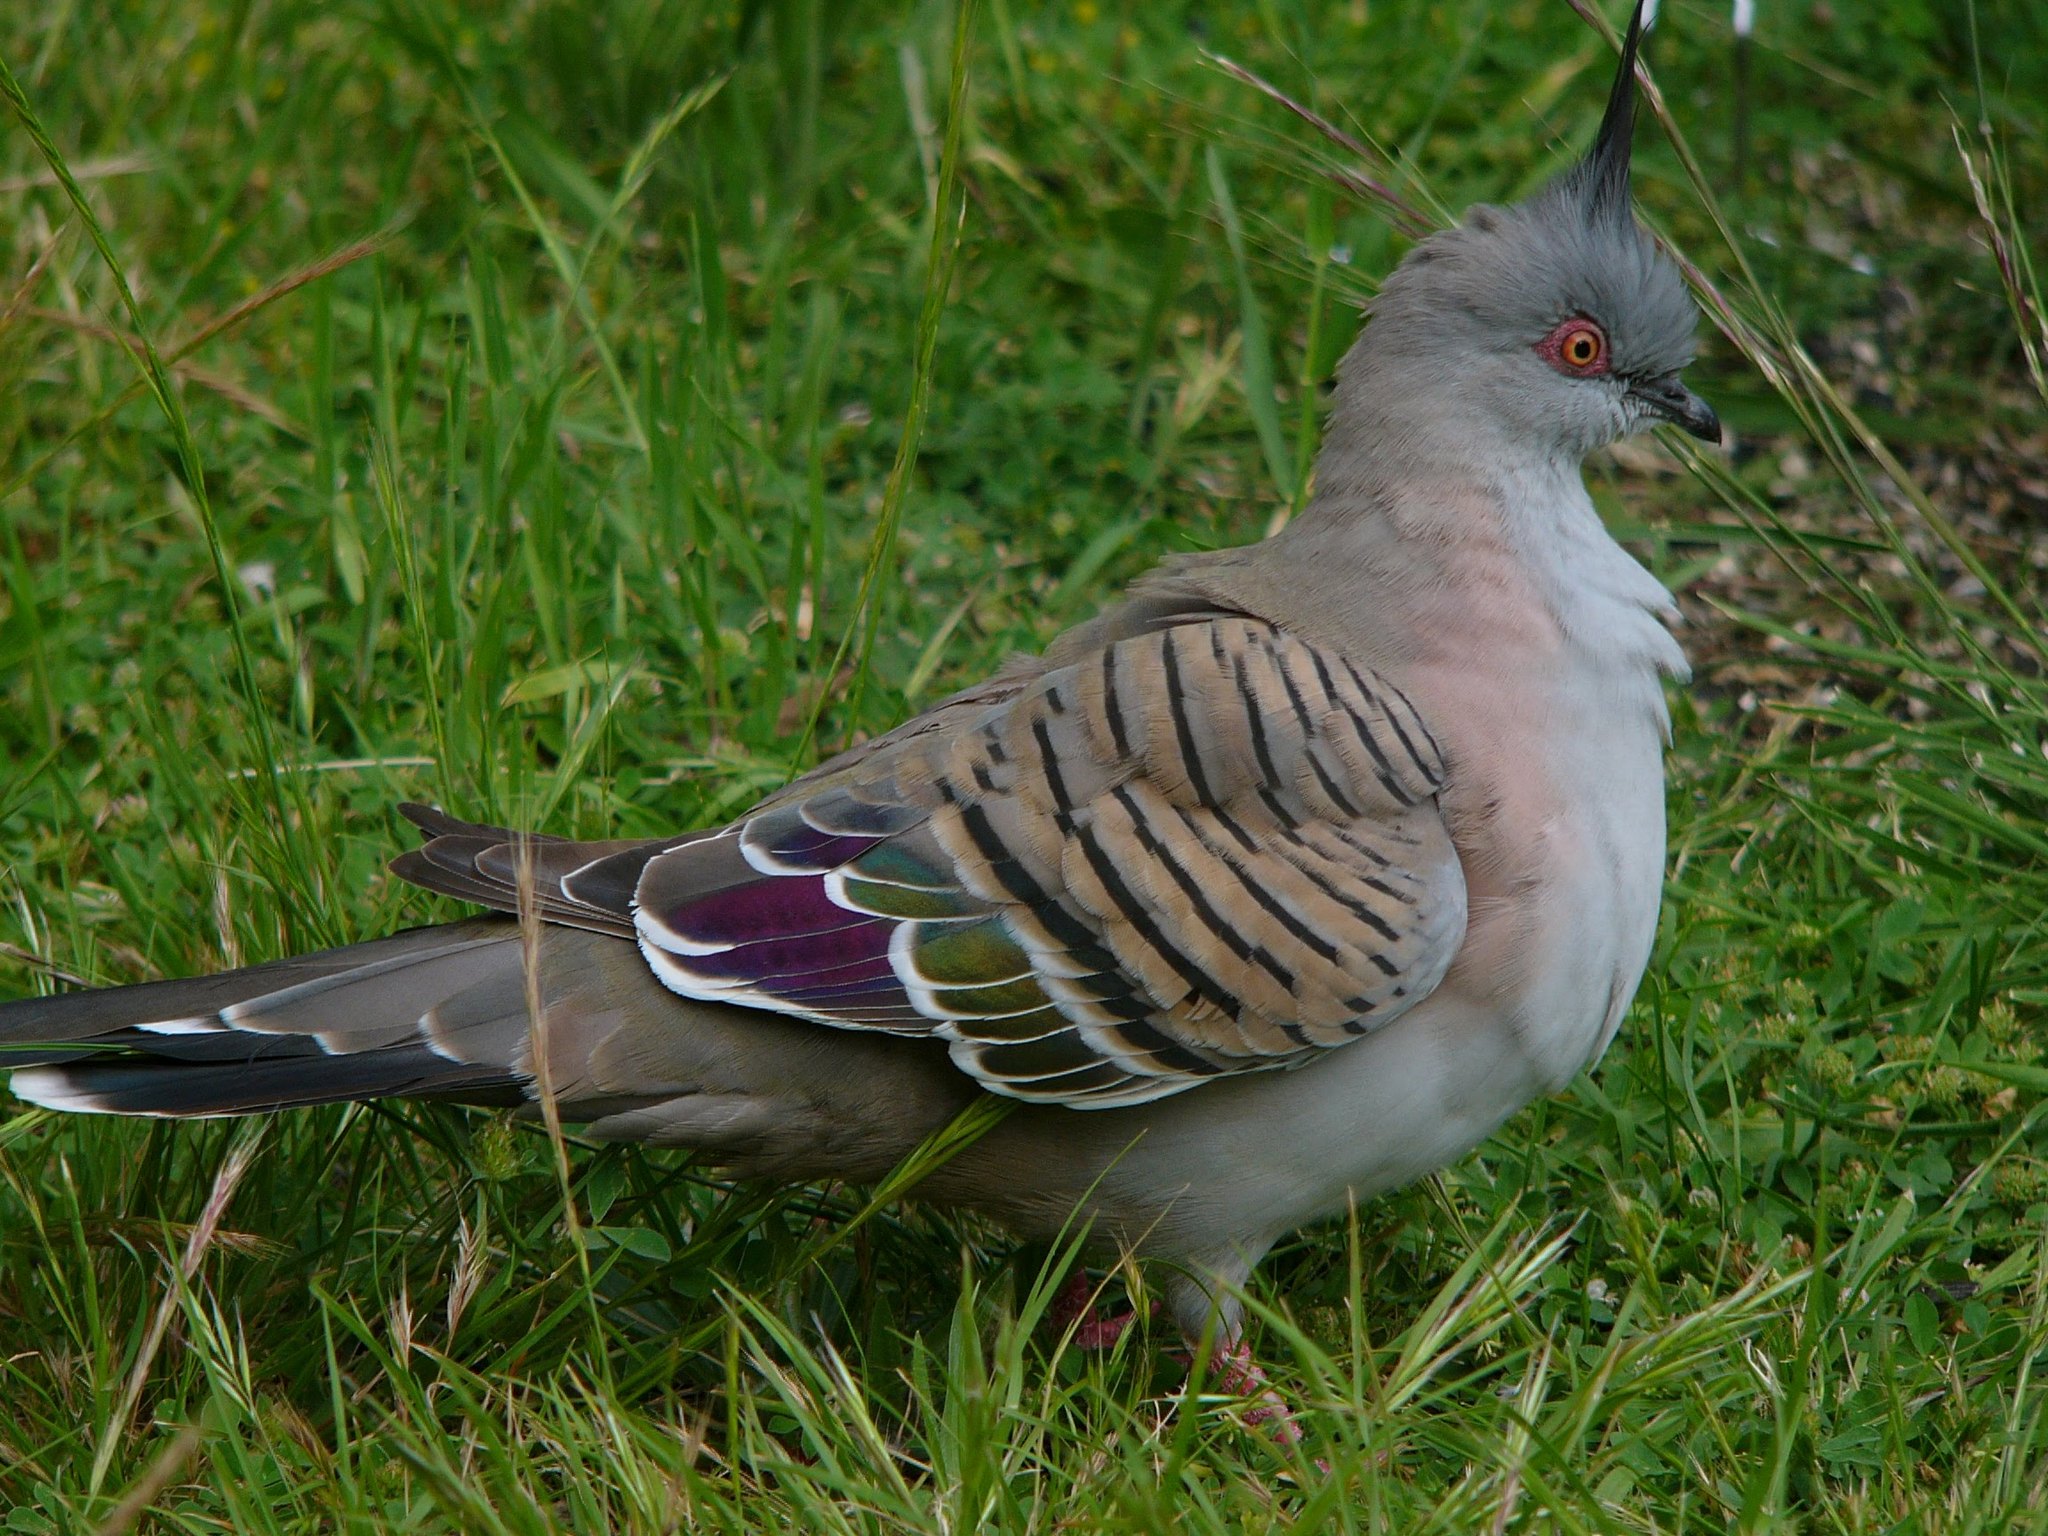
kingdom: Animalia
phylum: Chordata
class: Aves
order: Columbiformes
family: Columbidae
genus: Ocyphaps
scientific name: Ocyphaps lophotes
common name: Crested pigeon
